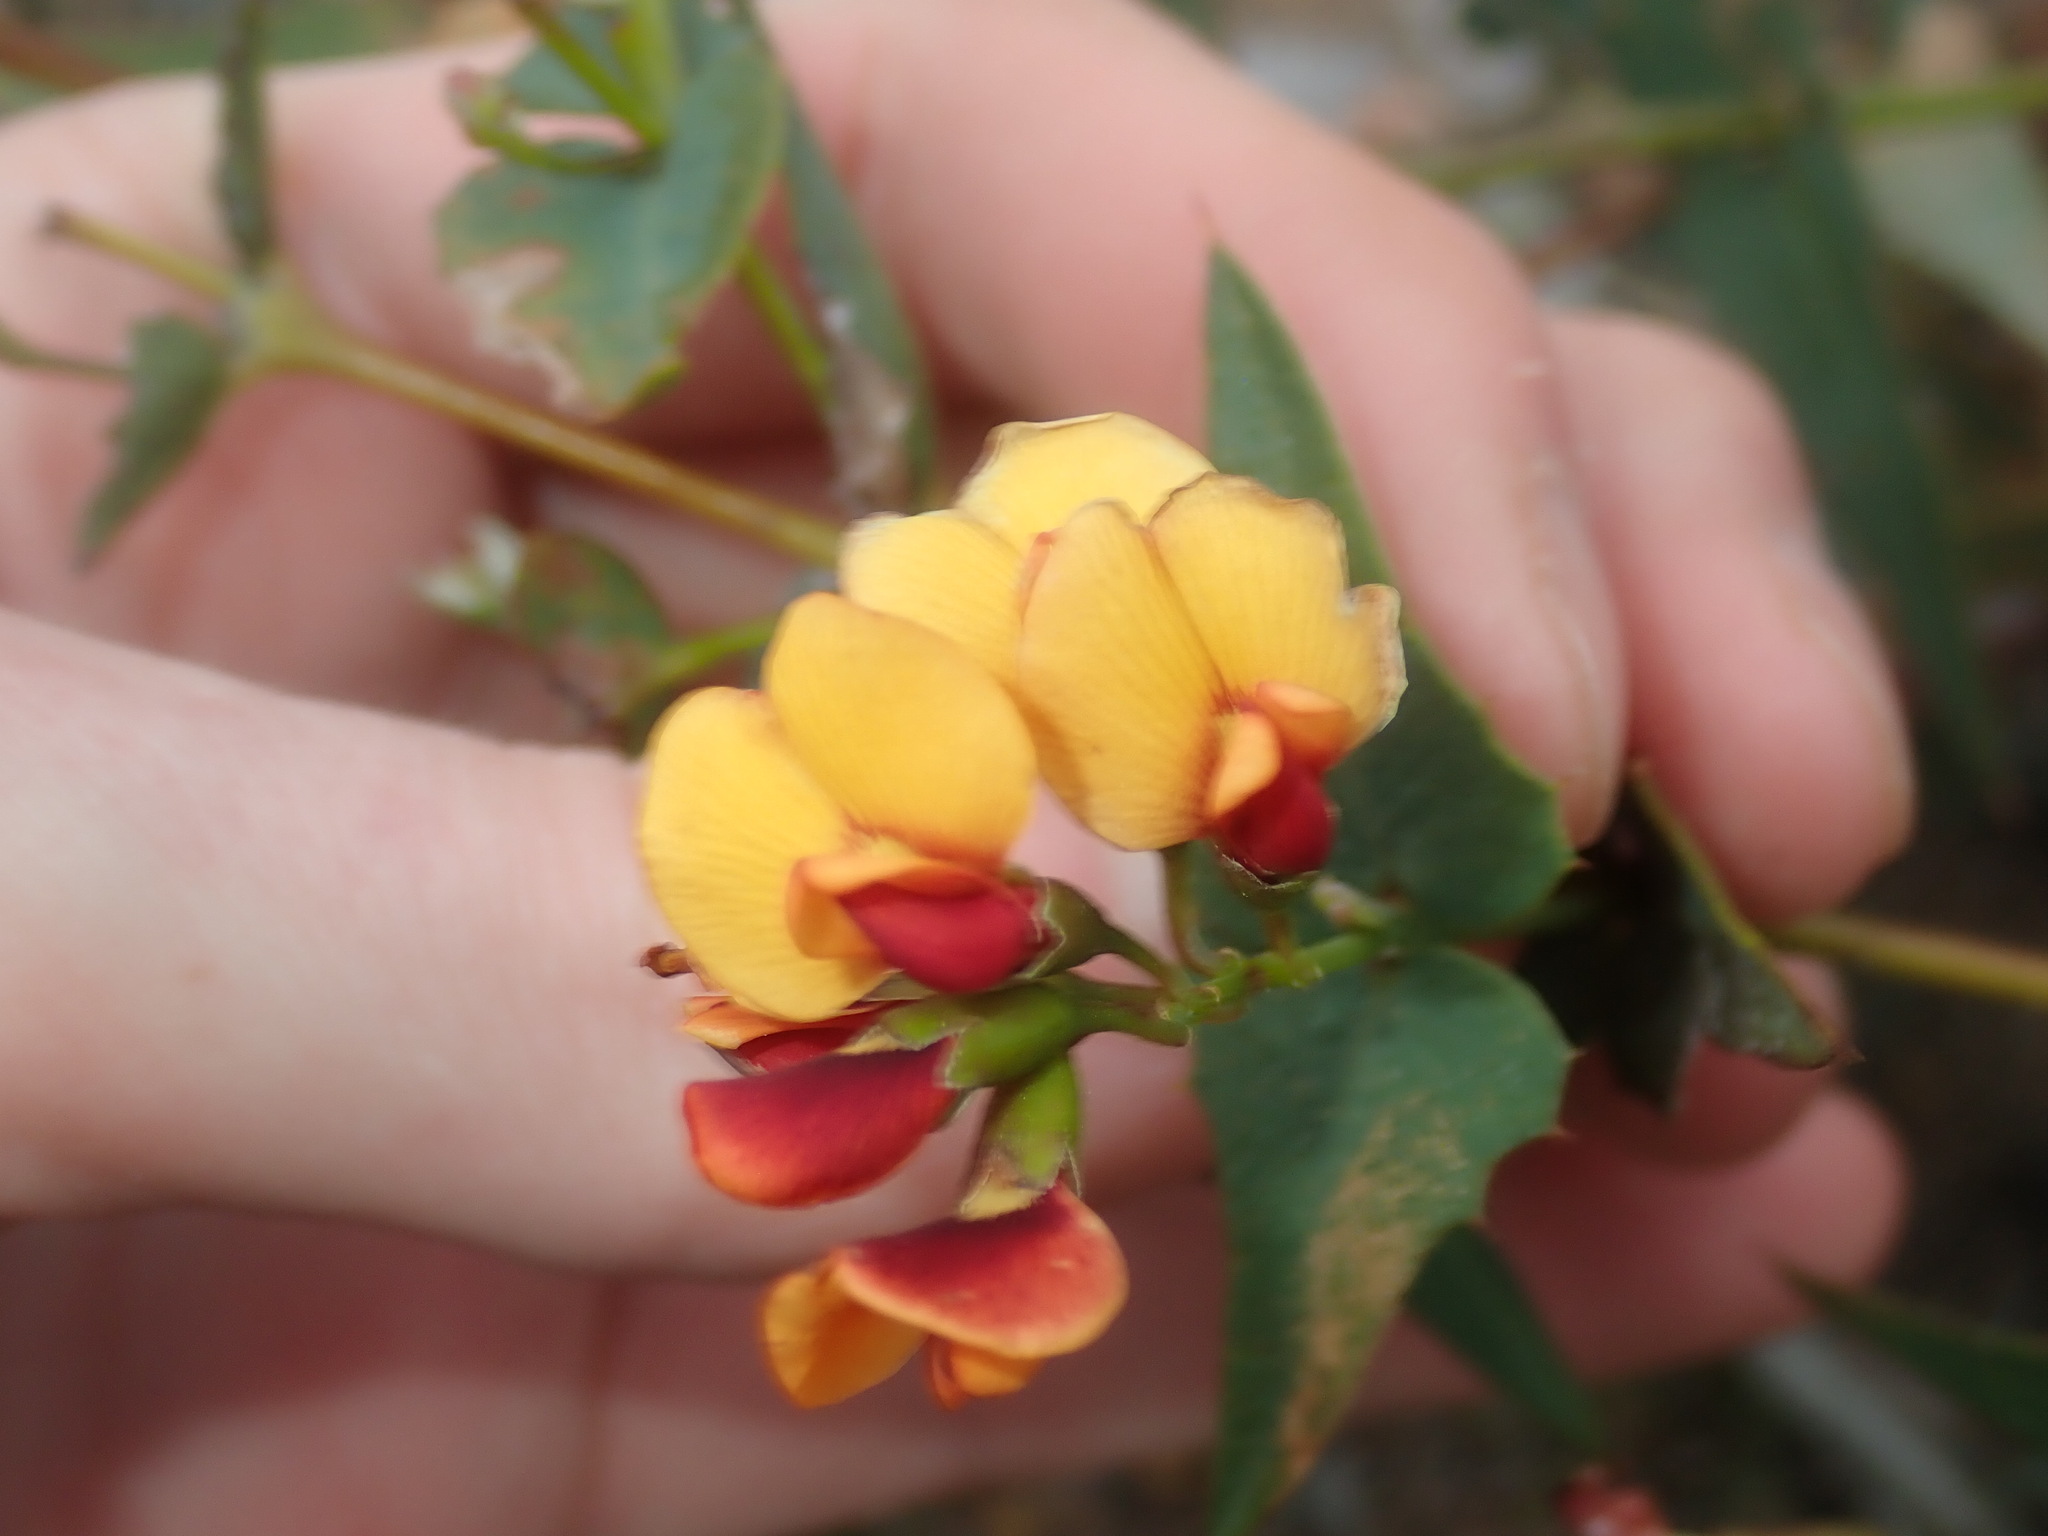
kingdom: Plantae
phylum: Tracheophyta
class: Magnoliopsida
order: Fabales
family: Fabaceae
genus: Gastrolobium
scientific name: Gastrolobium spinosum
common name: Prickly poison
